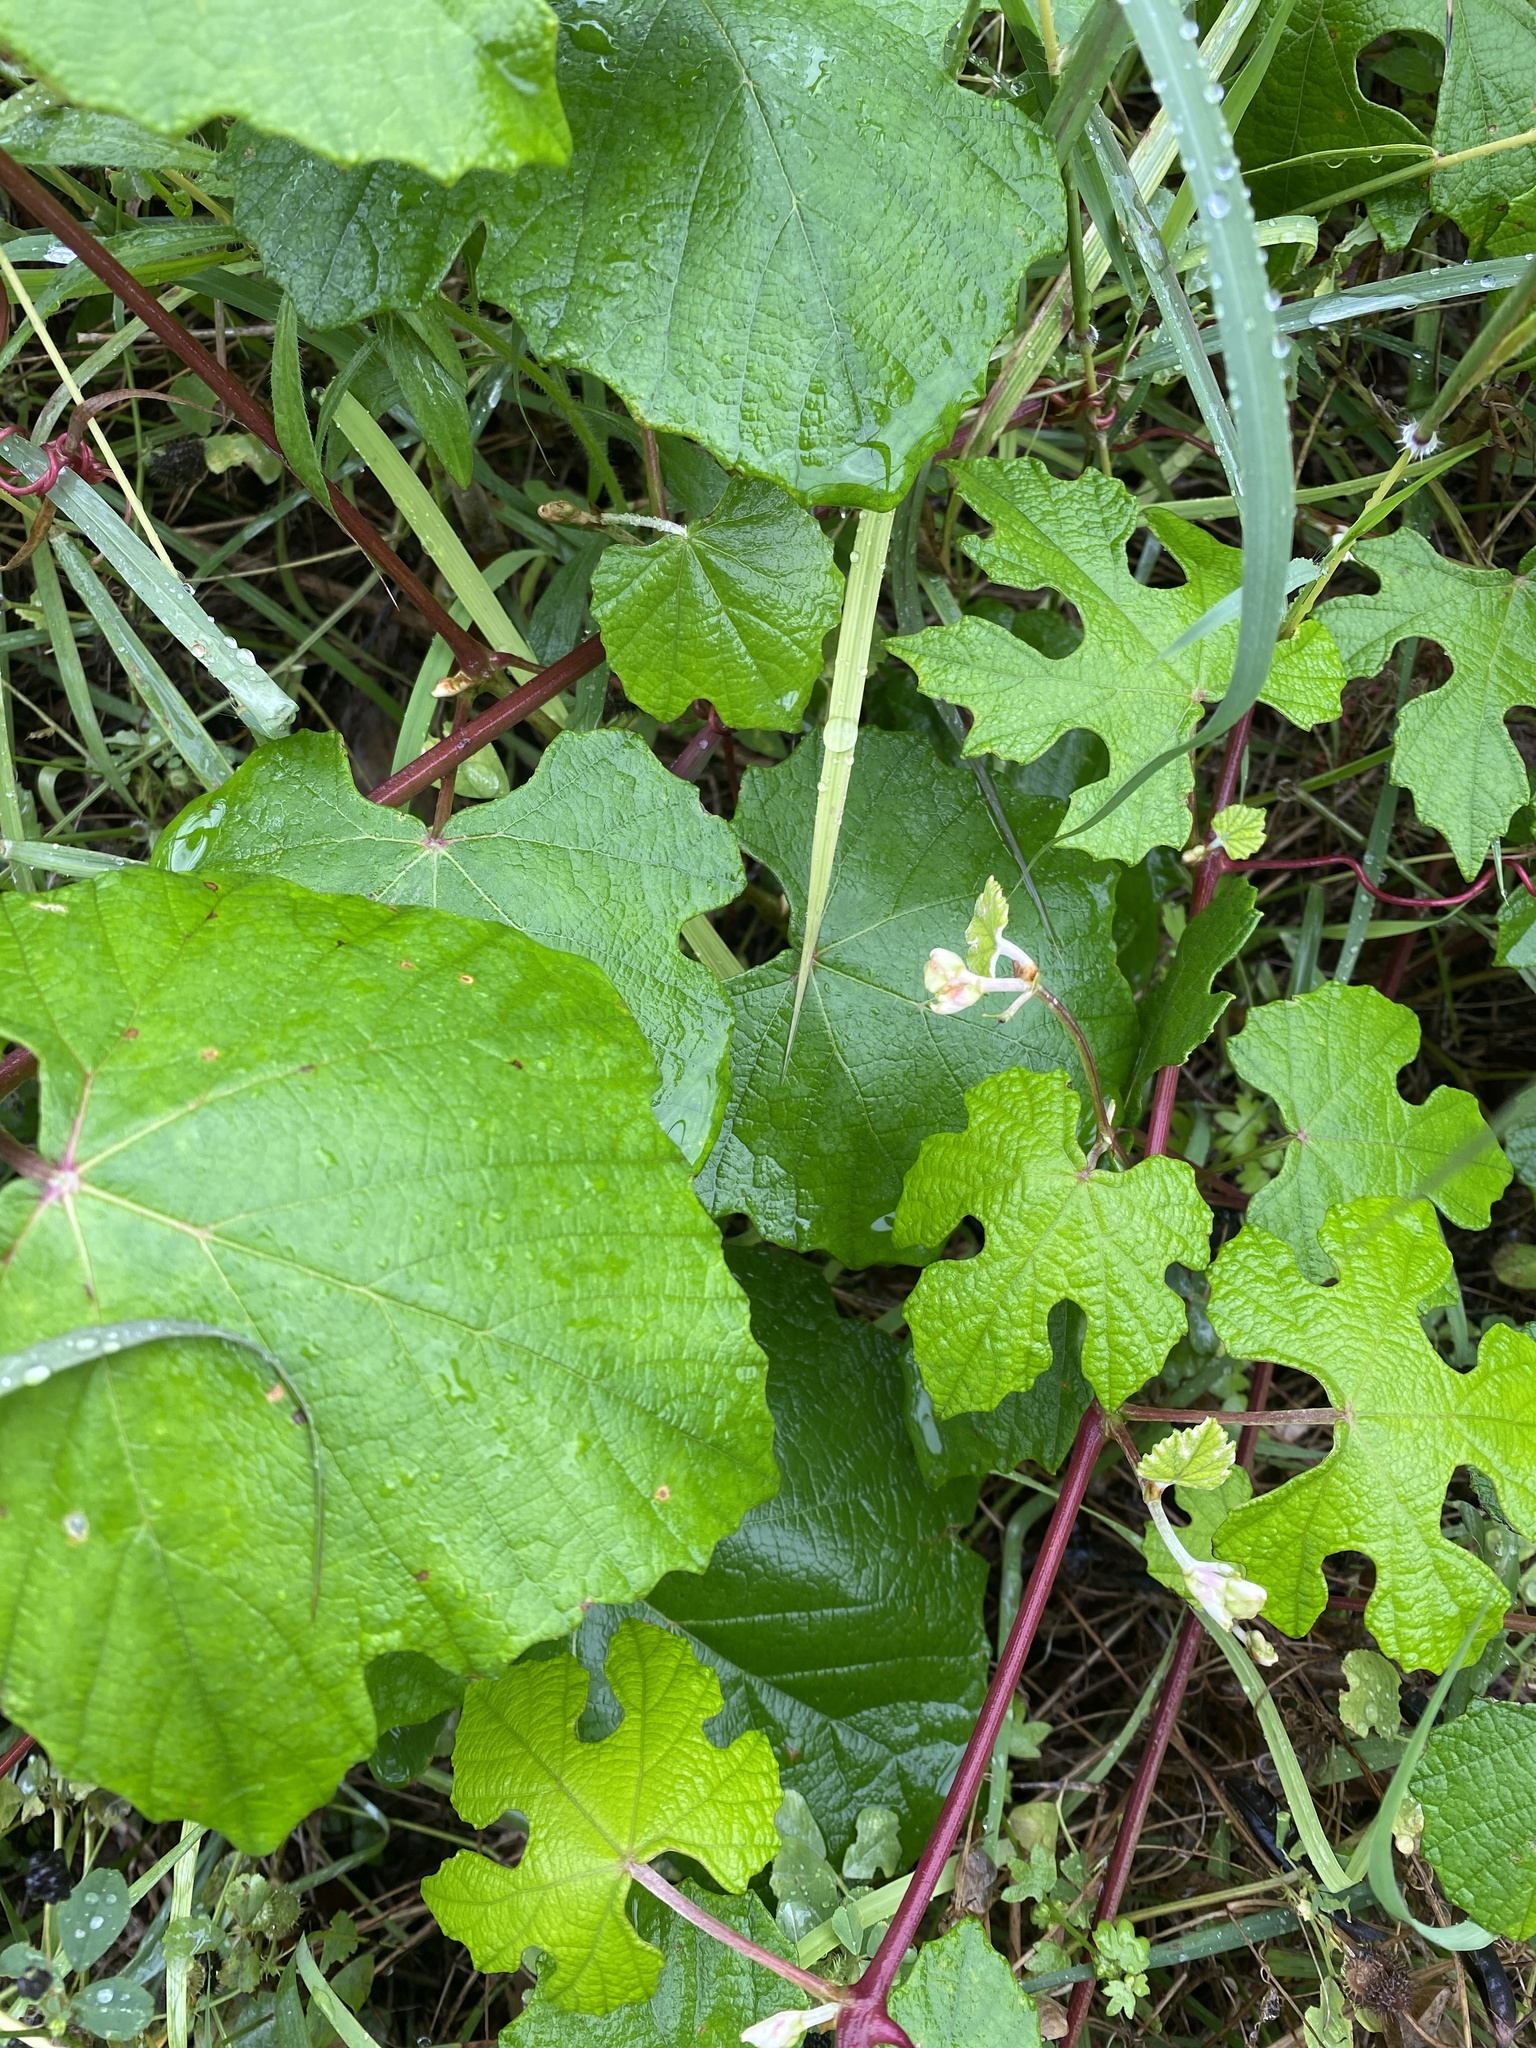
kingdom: Plantae
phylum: Tracheophyta
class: Magnoliopsida
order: Vitales
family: Vitaceae
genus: Vitis
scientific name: Vitis mustangensis
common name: Mustang grape
